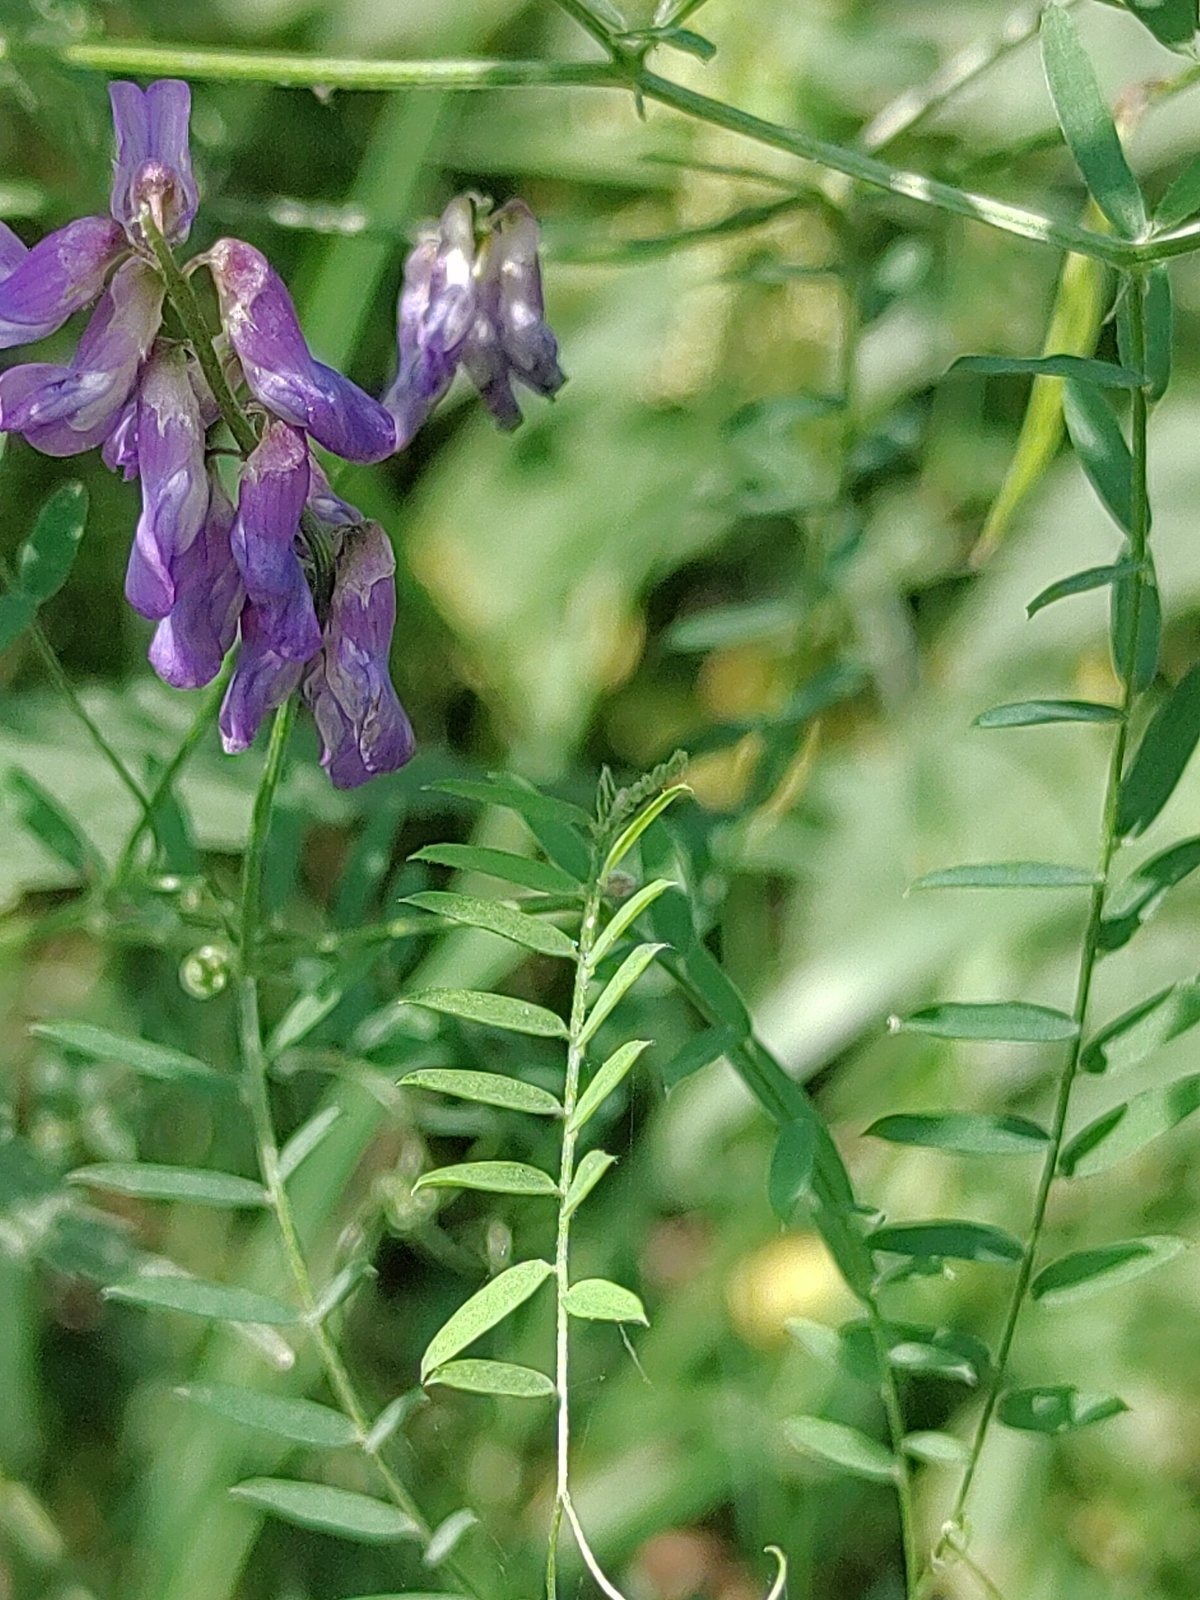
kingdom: Plantae
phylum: Tracheophyta
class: Magnoliopsida
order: Fabales
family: Fabaceae
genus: Vicia
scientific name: Vicia cracca
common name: Bird vetch
